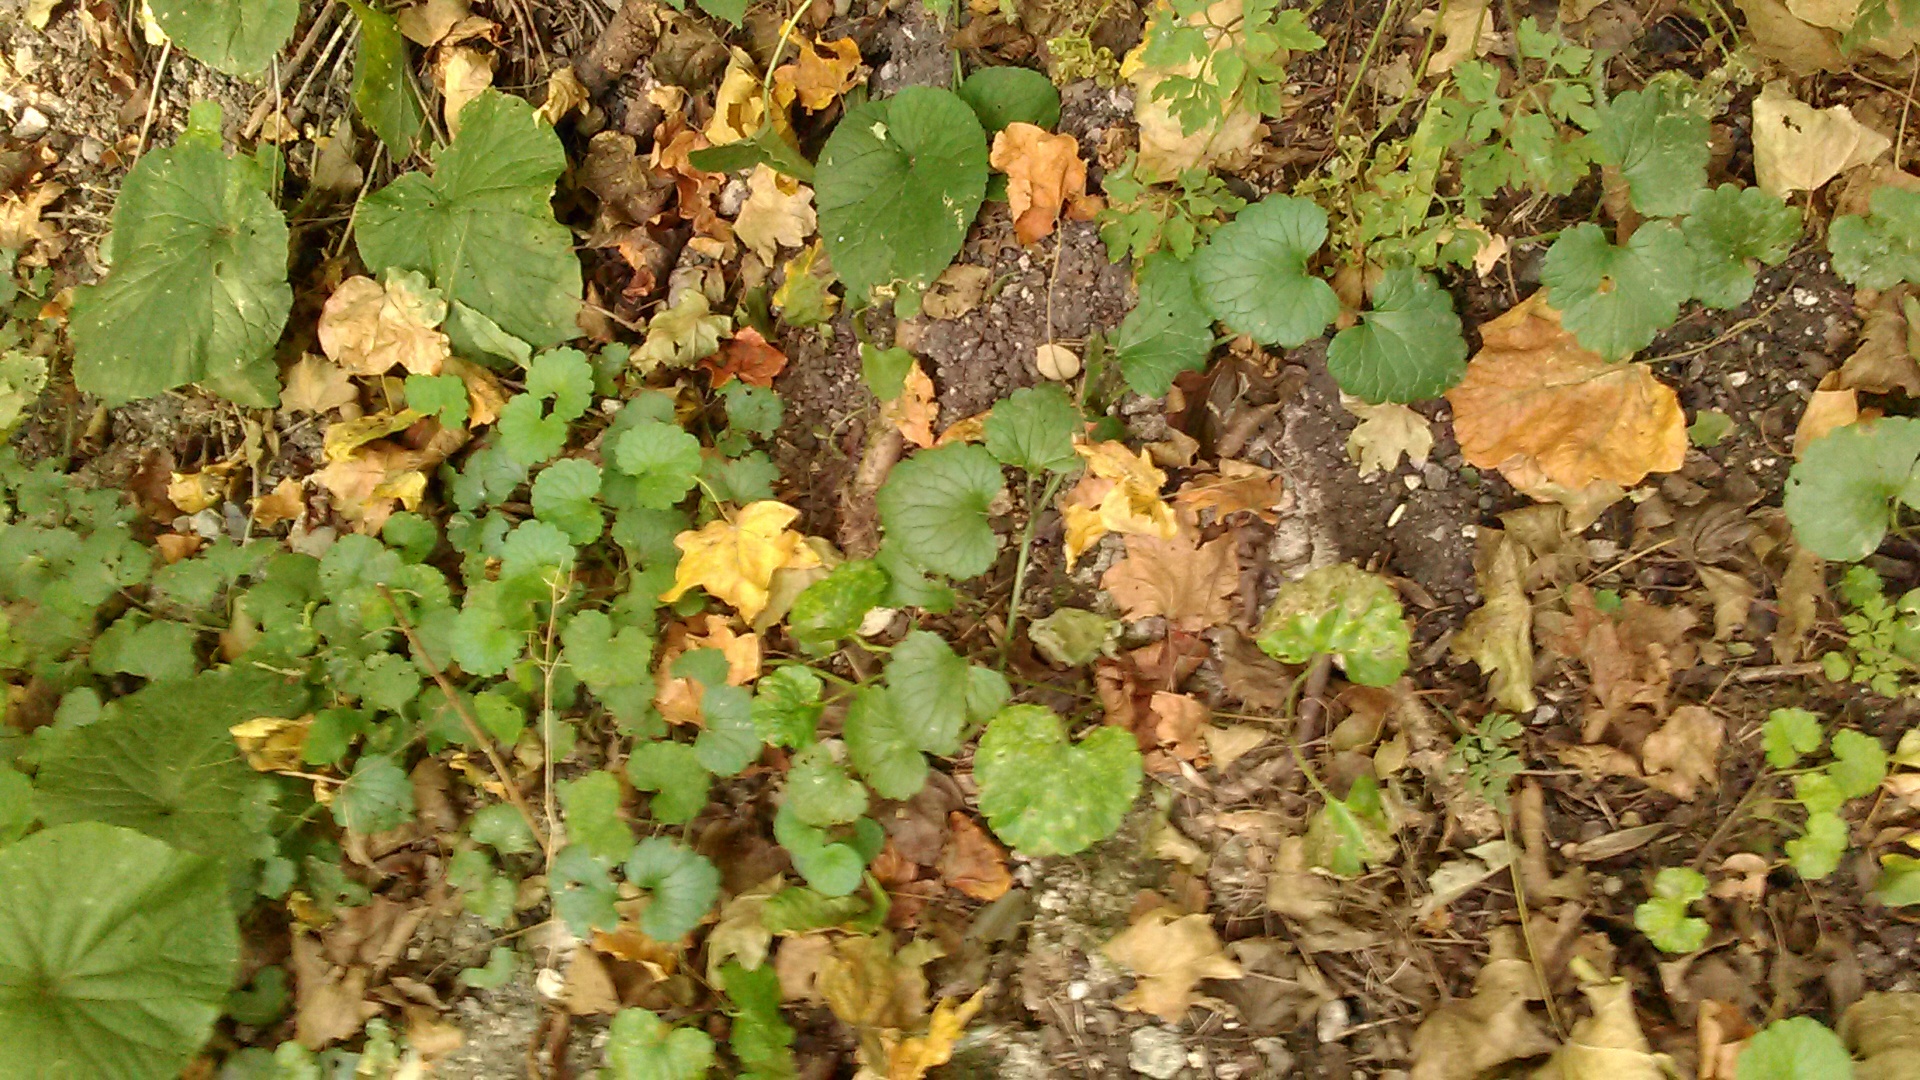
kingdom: Plantae
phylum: Tracheophyta
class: Magnoliopsida
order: Lamiales
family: Lamiaceae
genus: Glechoma
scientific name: Glechoma hederacea
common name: Ground ivy
